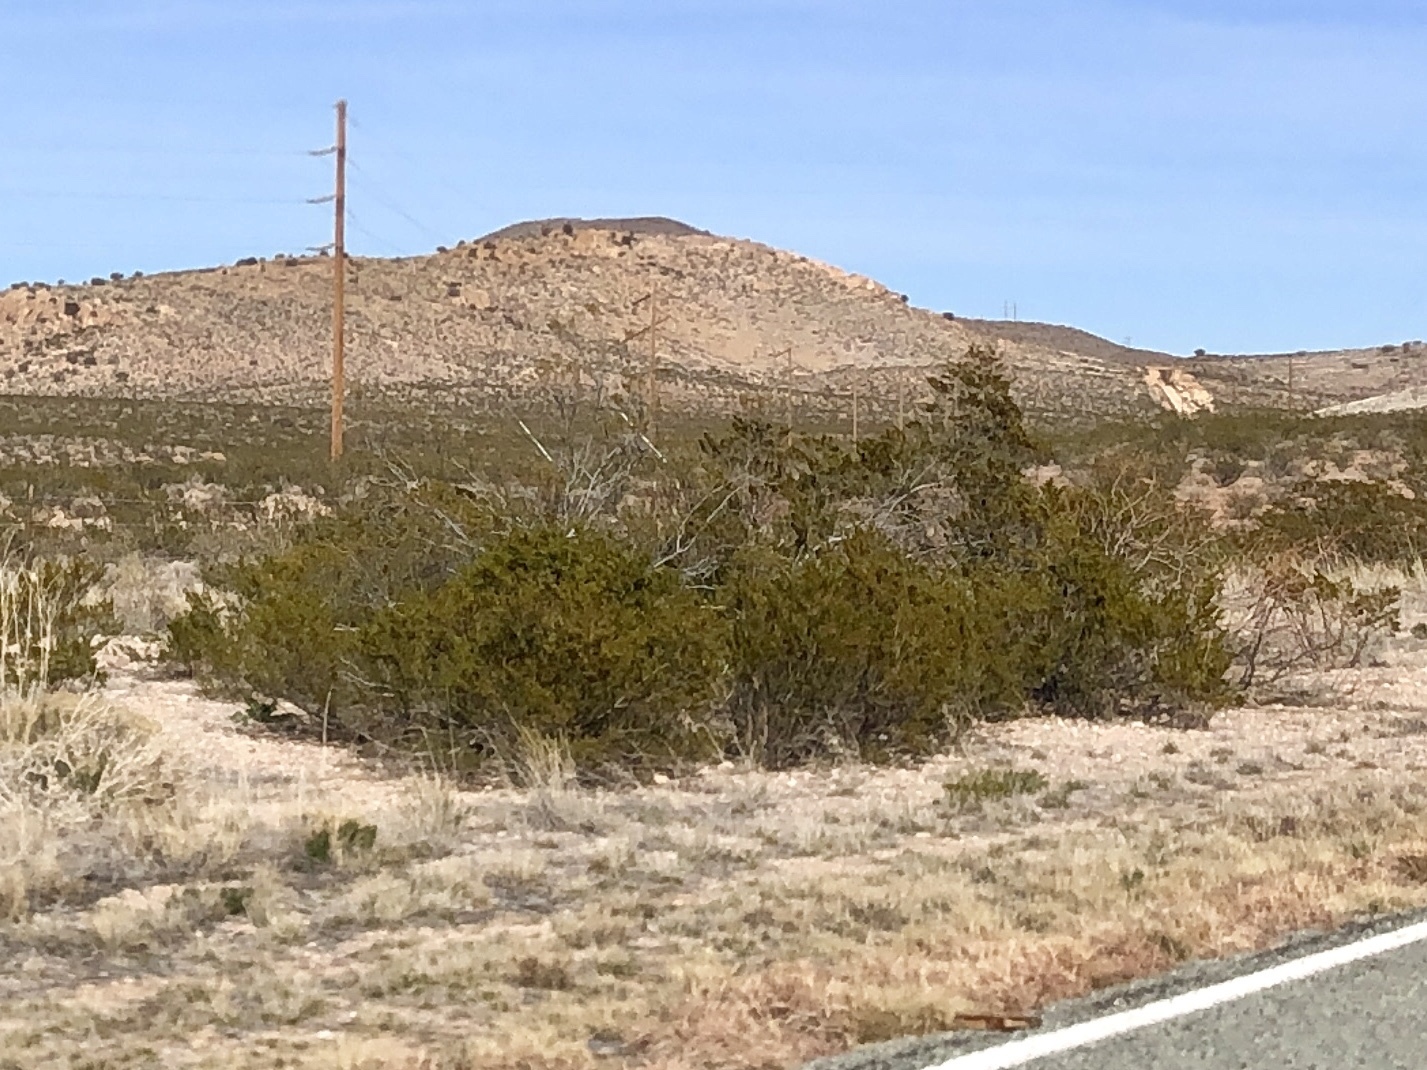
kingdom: Plantae
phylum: Tracheophyta
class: Magnoliopsida
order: Zygophyllales
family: Zygophyllaceae
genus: Larrea
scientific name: Larrea tridentata
